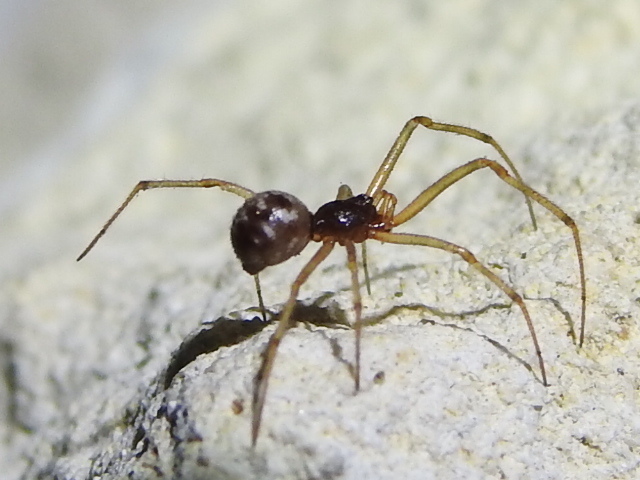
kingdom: Animalia
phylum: Arthropoda
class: Arachnida
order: Araneae
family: Theridiidae
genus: Steatoda
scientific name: Steatoda triangulosa
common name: Triangulate bud spider
